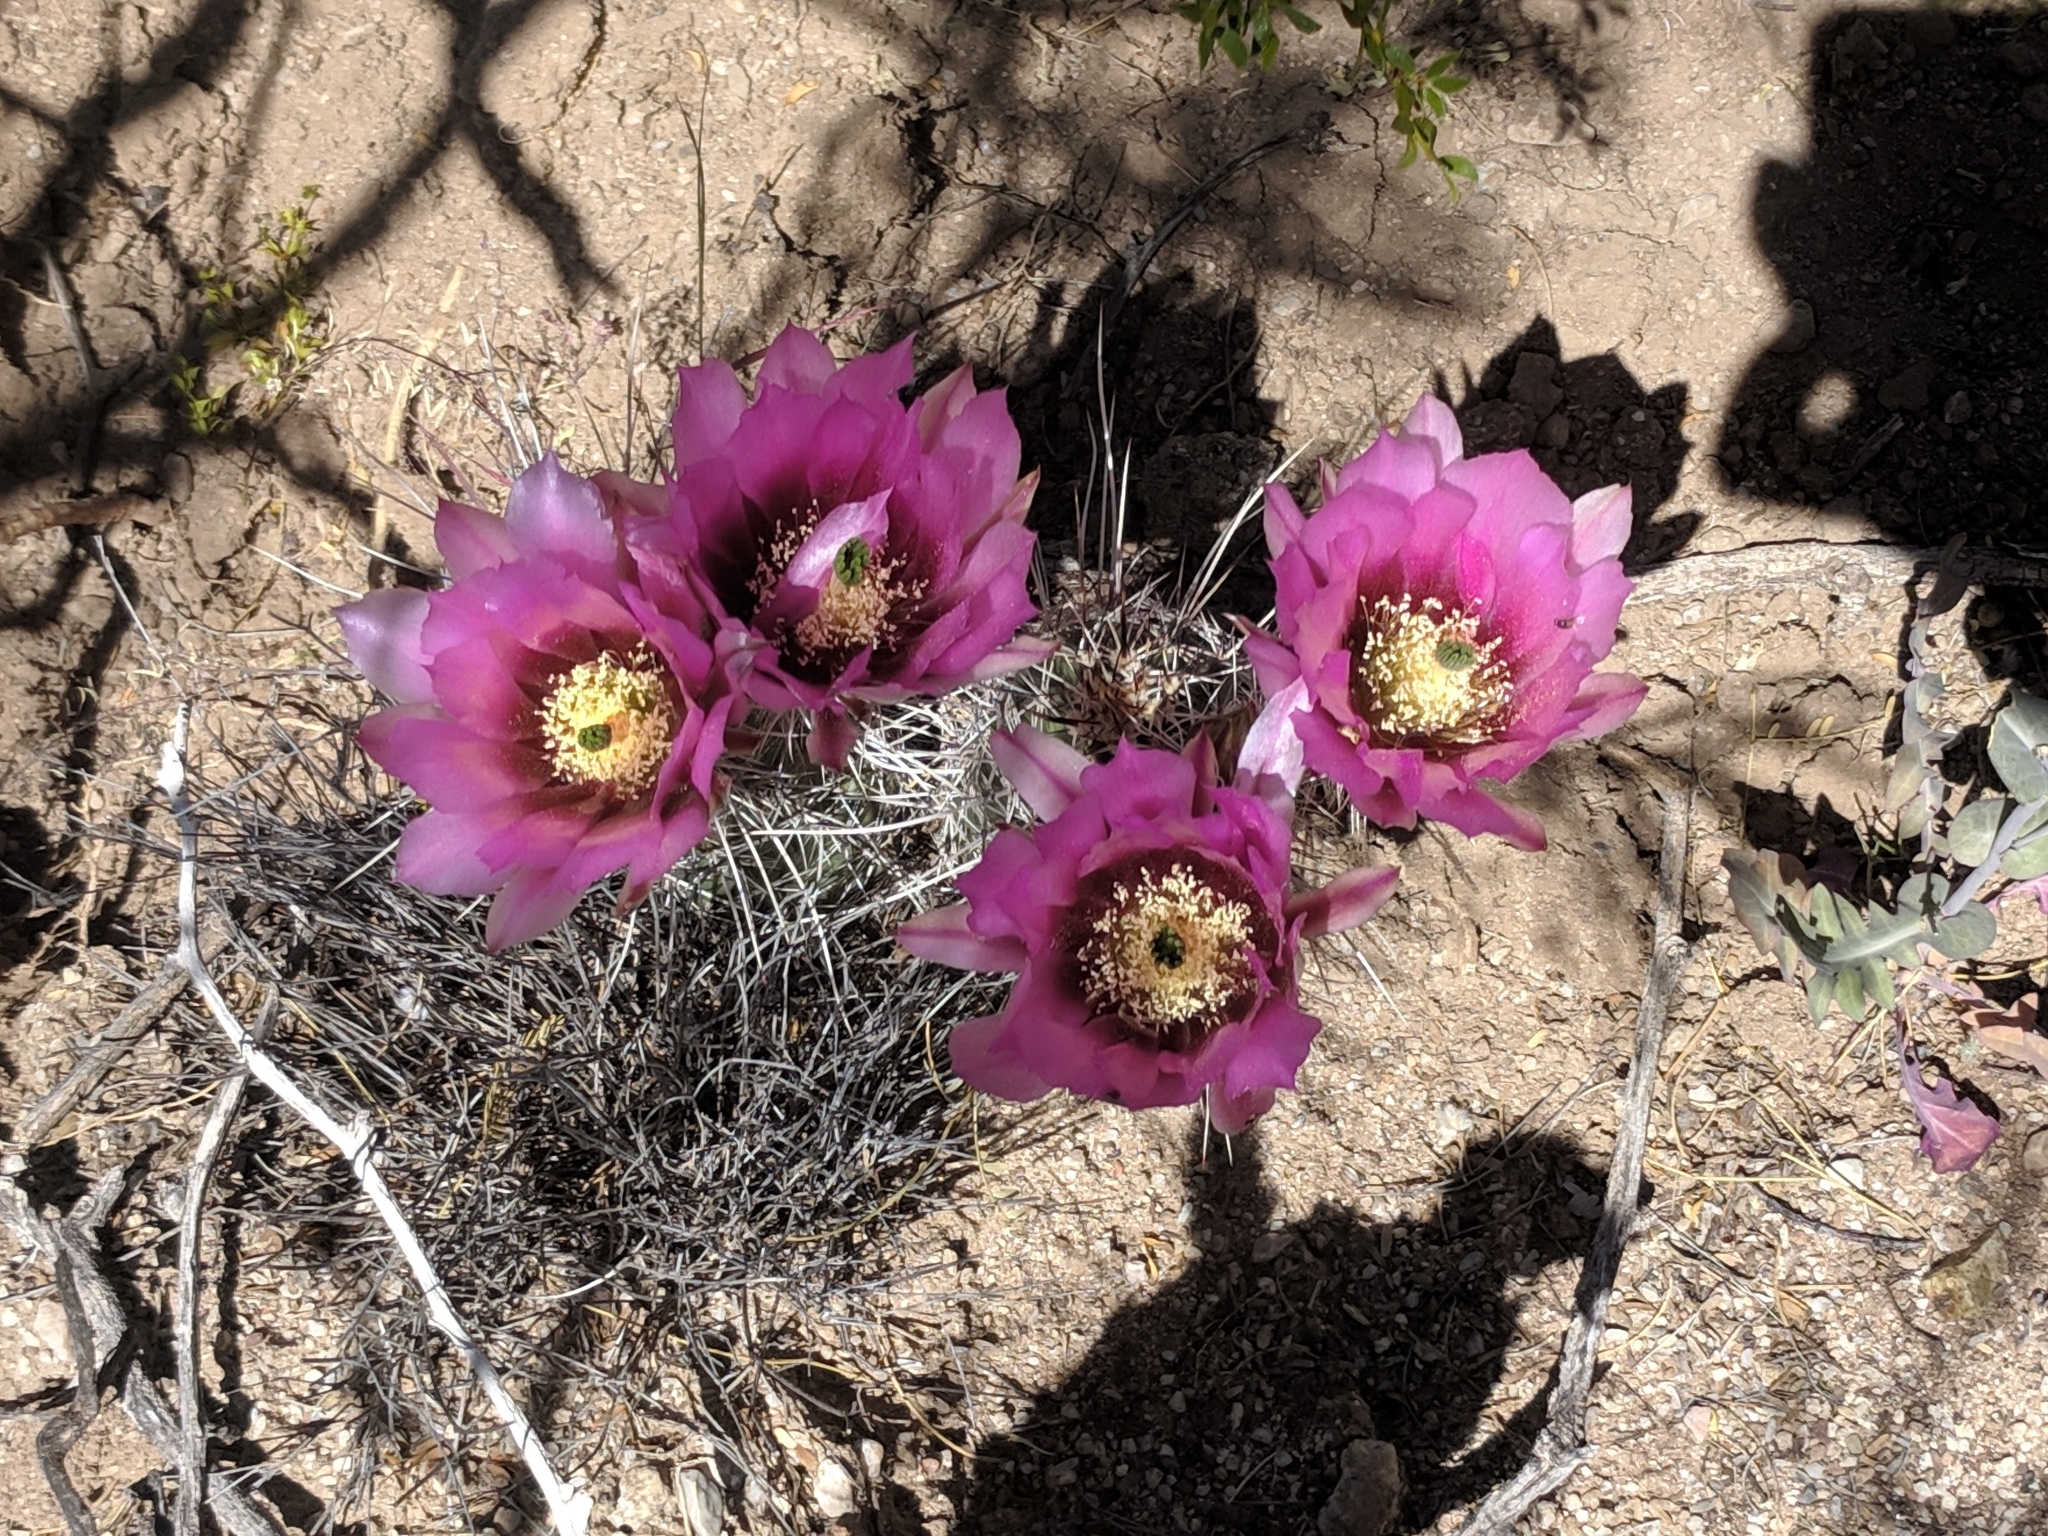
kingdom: Plantae
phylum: Tracheophyta
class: Magnoliopsida
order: Caryophyllales
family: Cactaceae
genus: Echinocereus
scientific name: Echinocereus fasciculatus
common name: Bundle hedgehog
